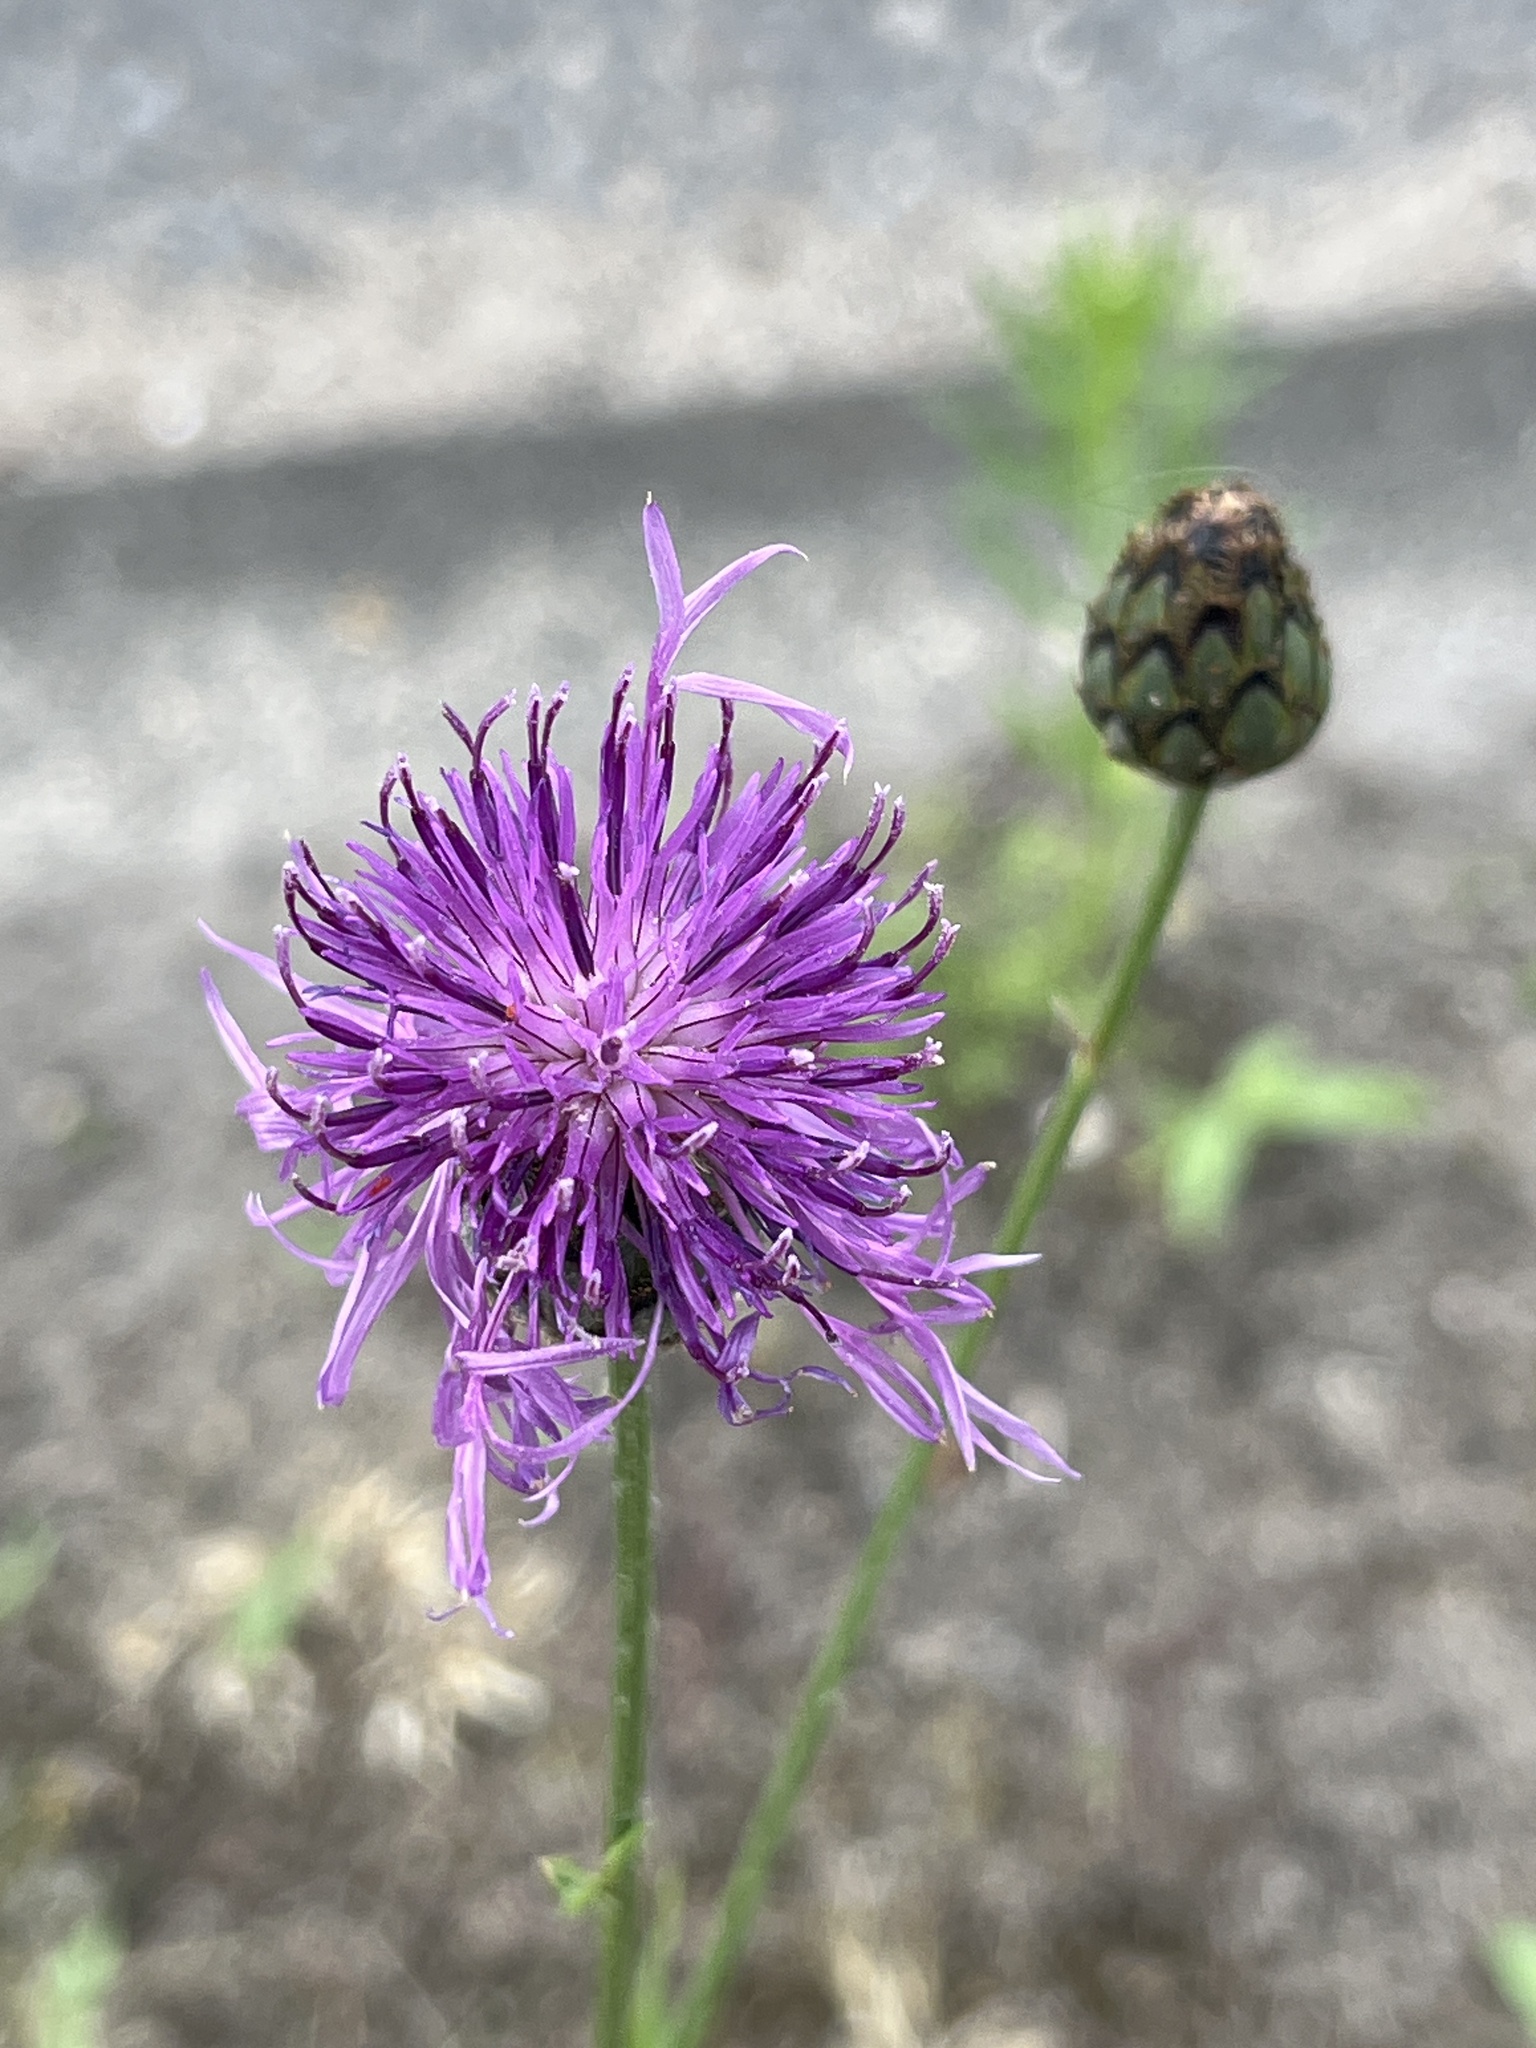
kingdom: Plantae
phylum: Tracheophyta
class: Magnoliopsida
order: Asterales
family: Asteraceae
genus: Centaurea
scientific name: Centaurea scabiosa
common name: Greater knapweed
